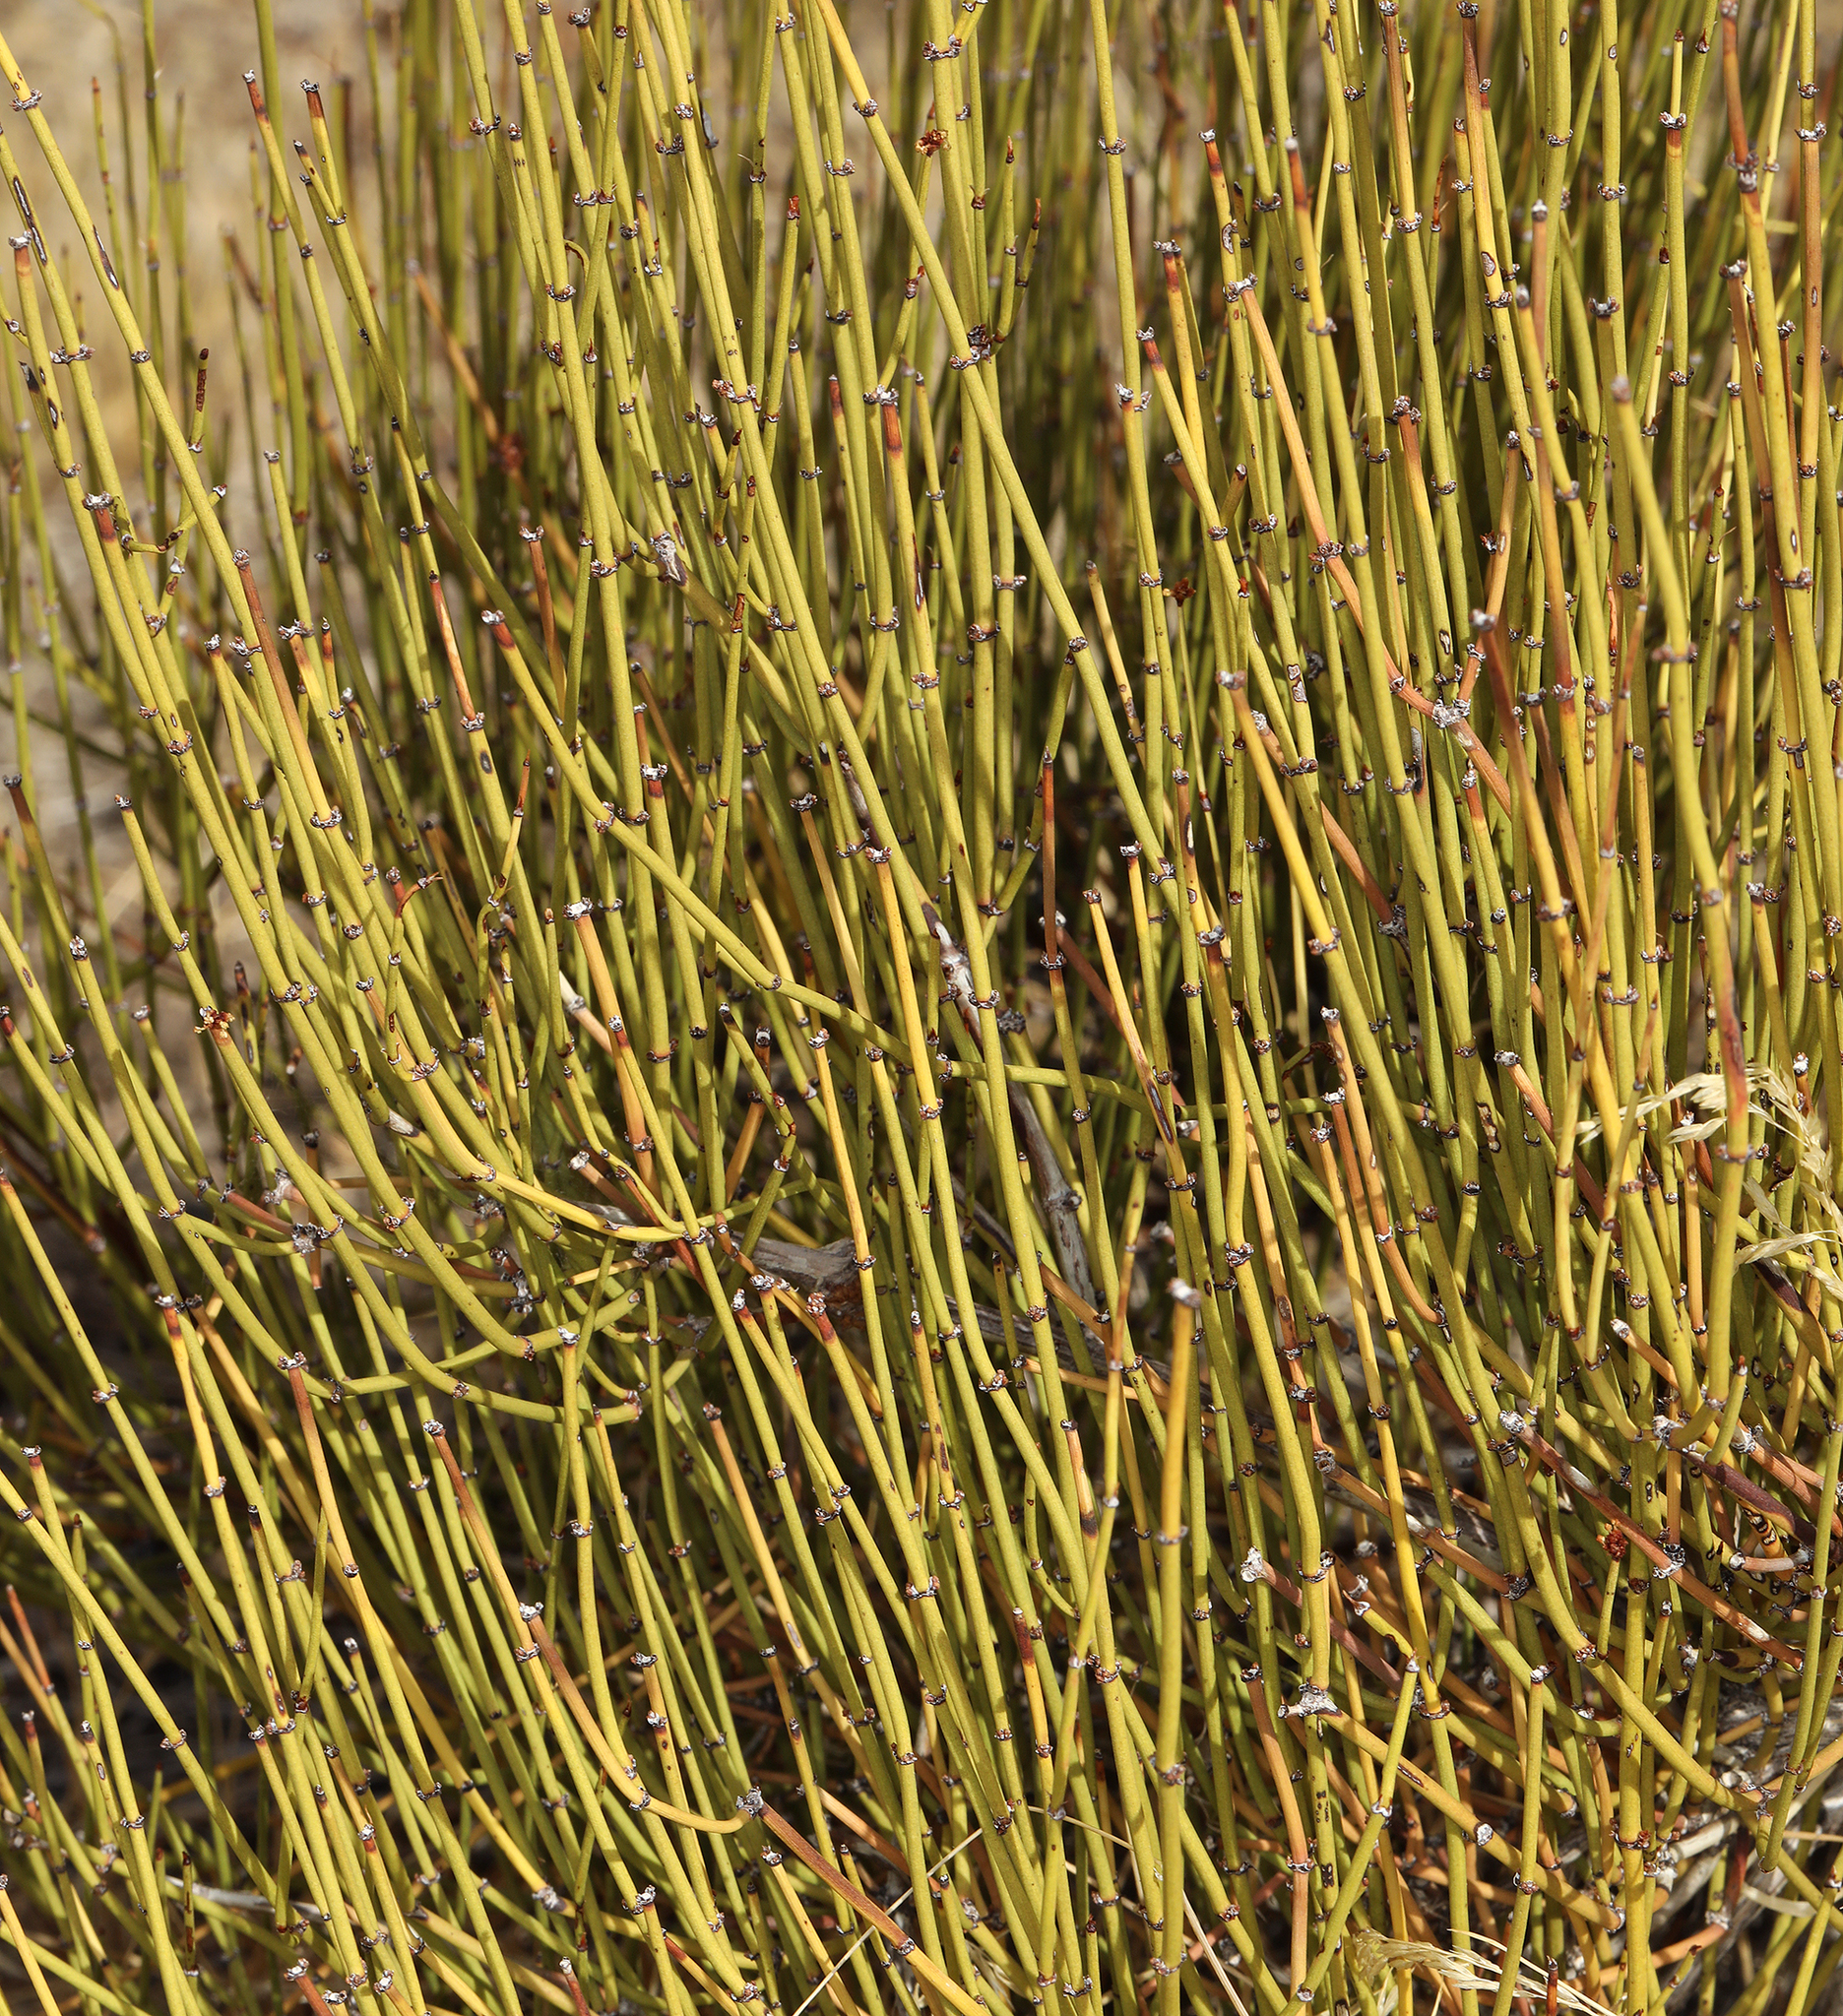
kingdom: Plantae
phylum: Tracheophyta
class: Gnetopsida
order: Ephedrales
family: Ephedraceae
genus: Ephedra
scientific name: Ephedra viridis
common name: Green ephedra
